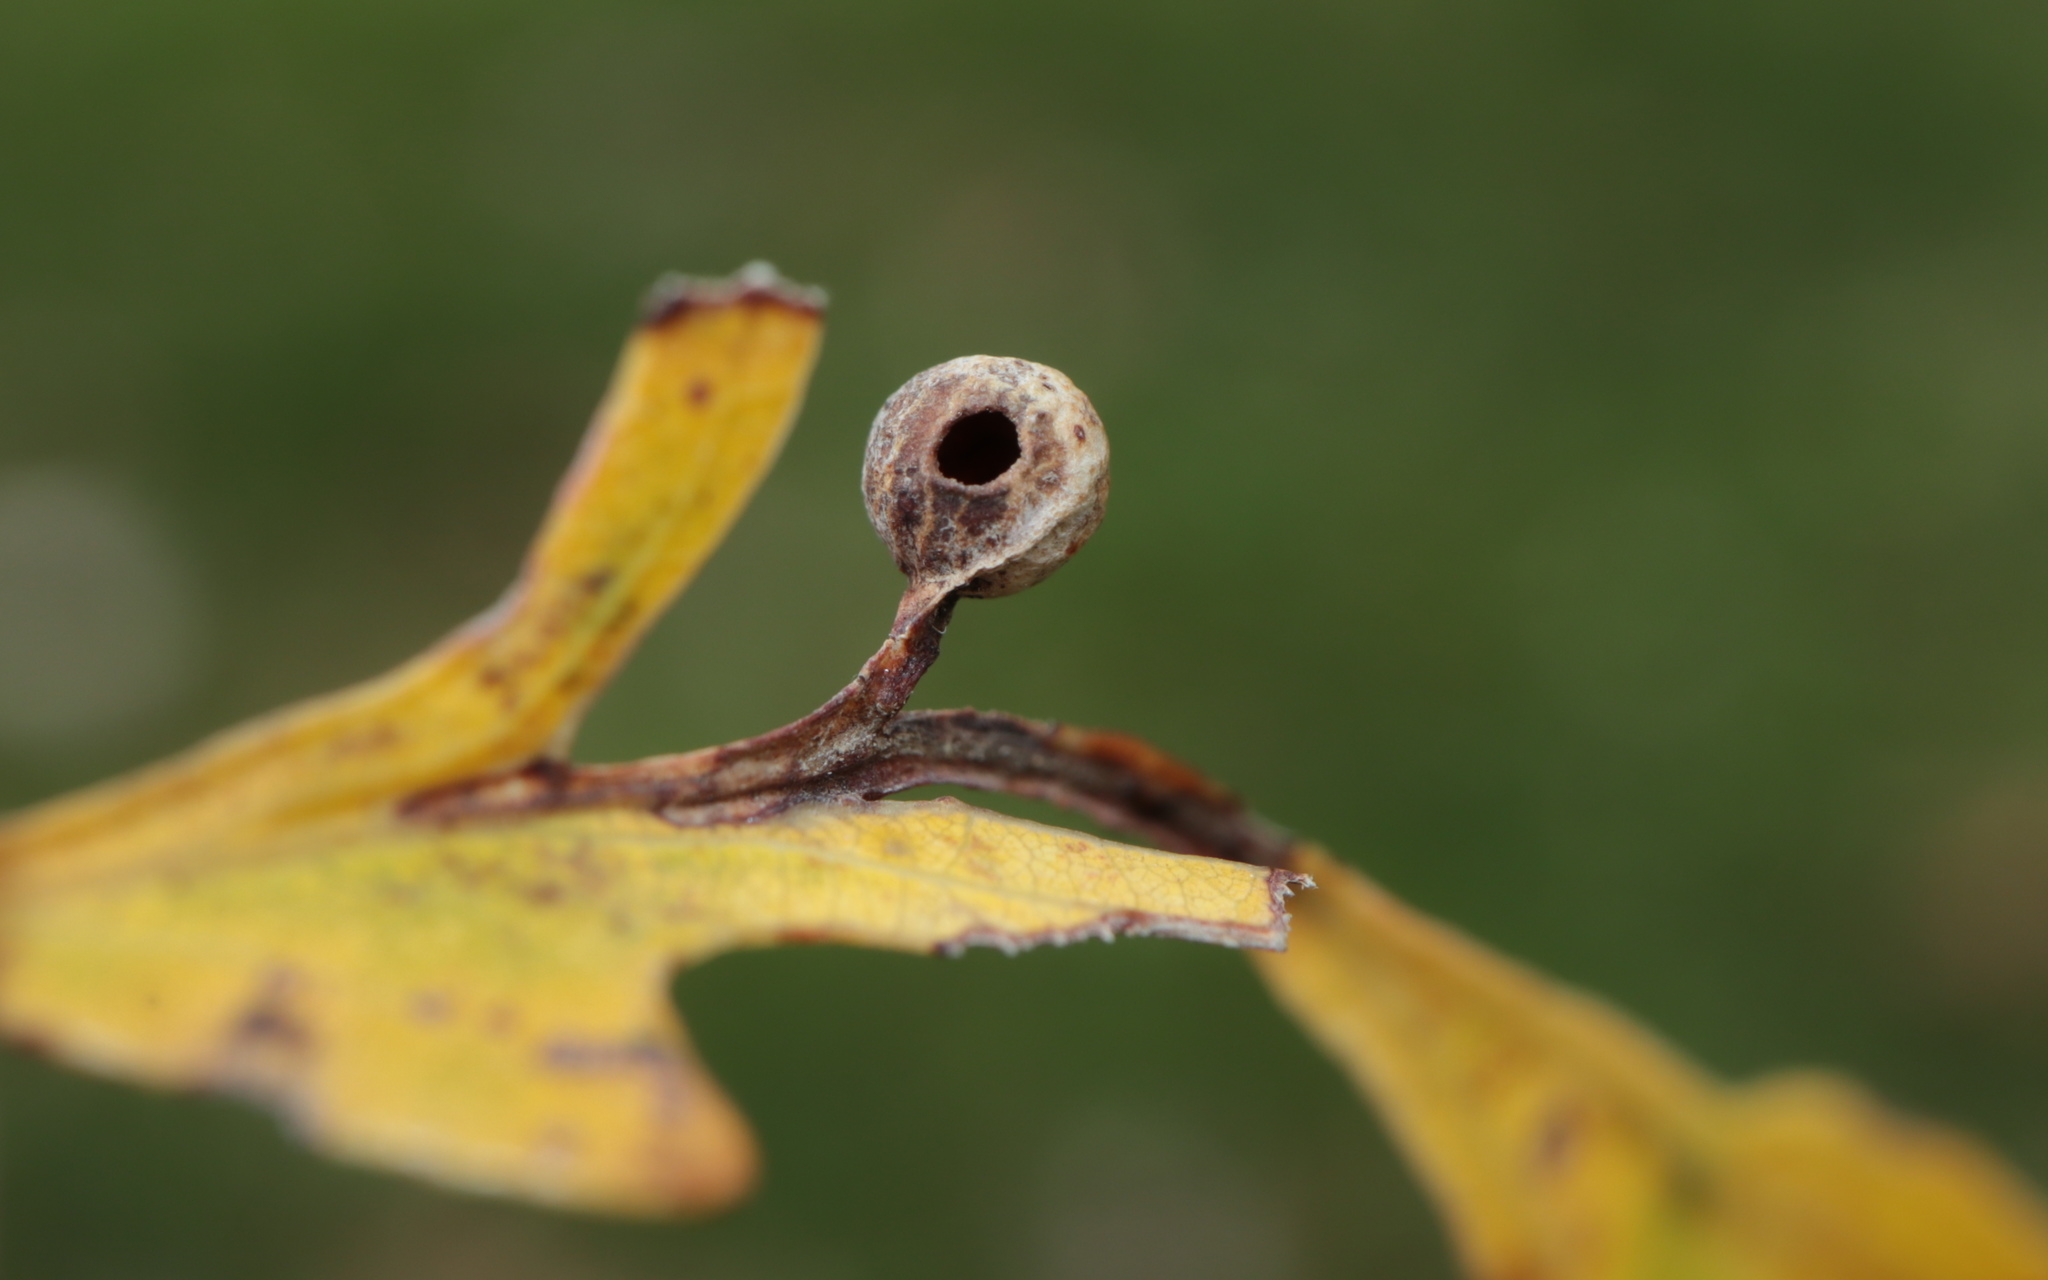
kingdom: Animalia
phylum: Arthropoda
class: Insecta
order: Hymenoptera
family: Cynipidae
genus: Andricus
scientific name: Andricus
